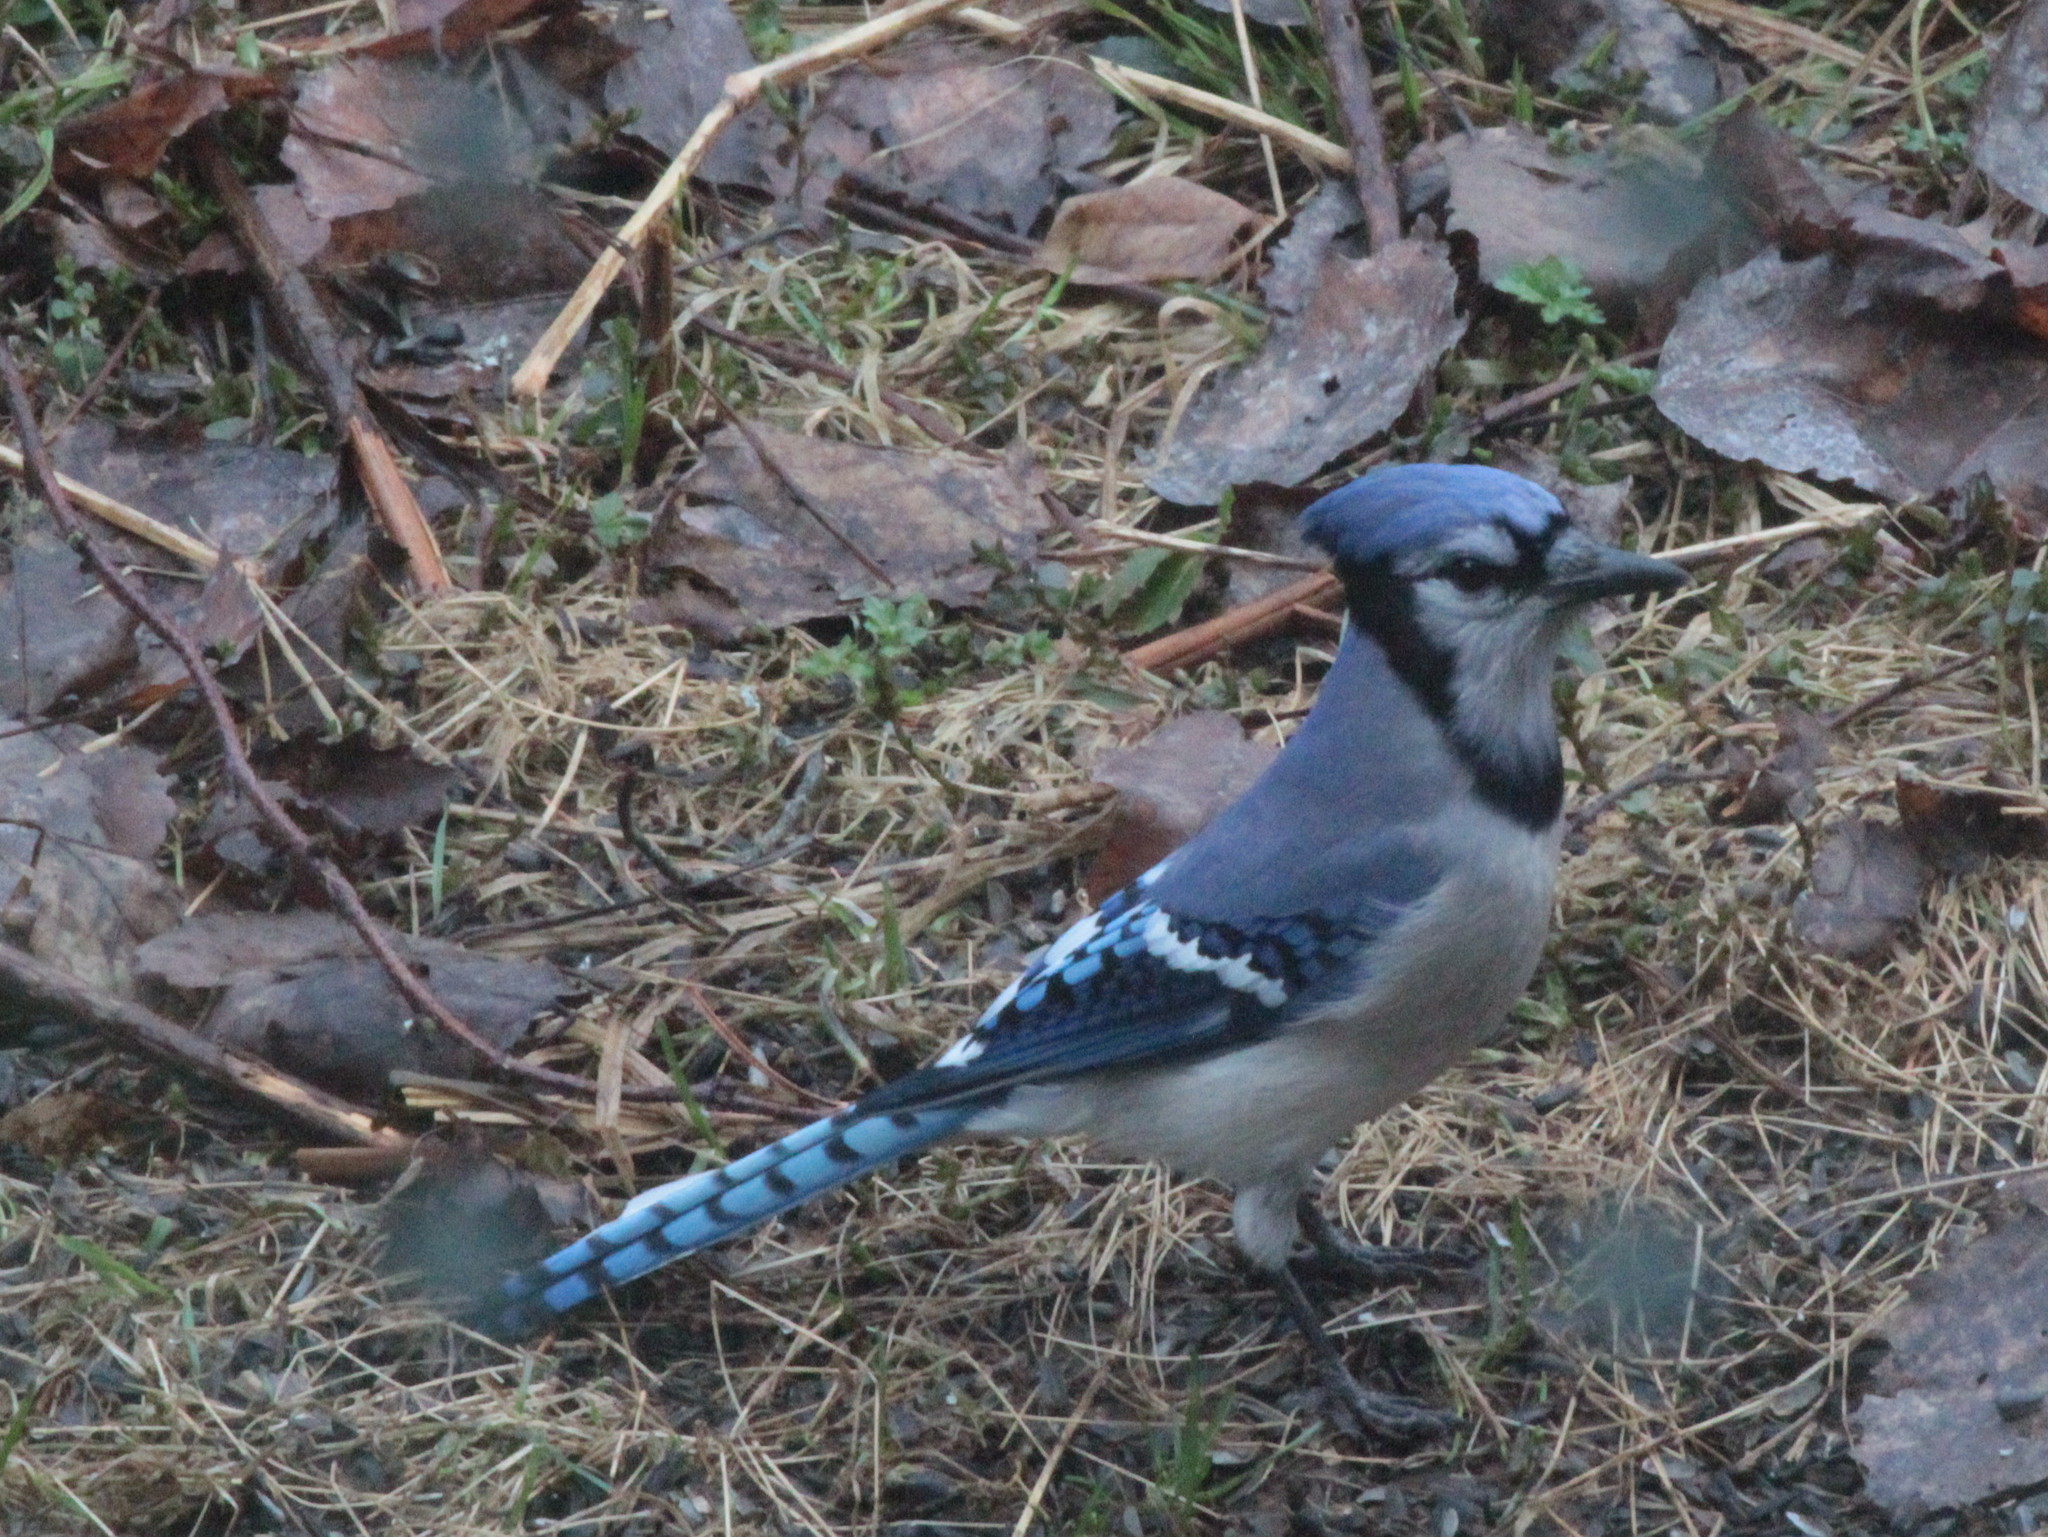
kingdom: Animalia
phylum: Chordata
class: Aves
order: Passeriformes
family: Corvidae
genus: Cyanocitta
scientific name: Cyanocitta cristata
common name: Blue jay
